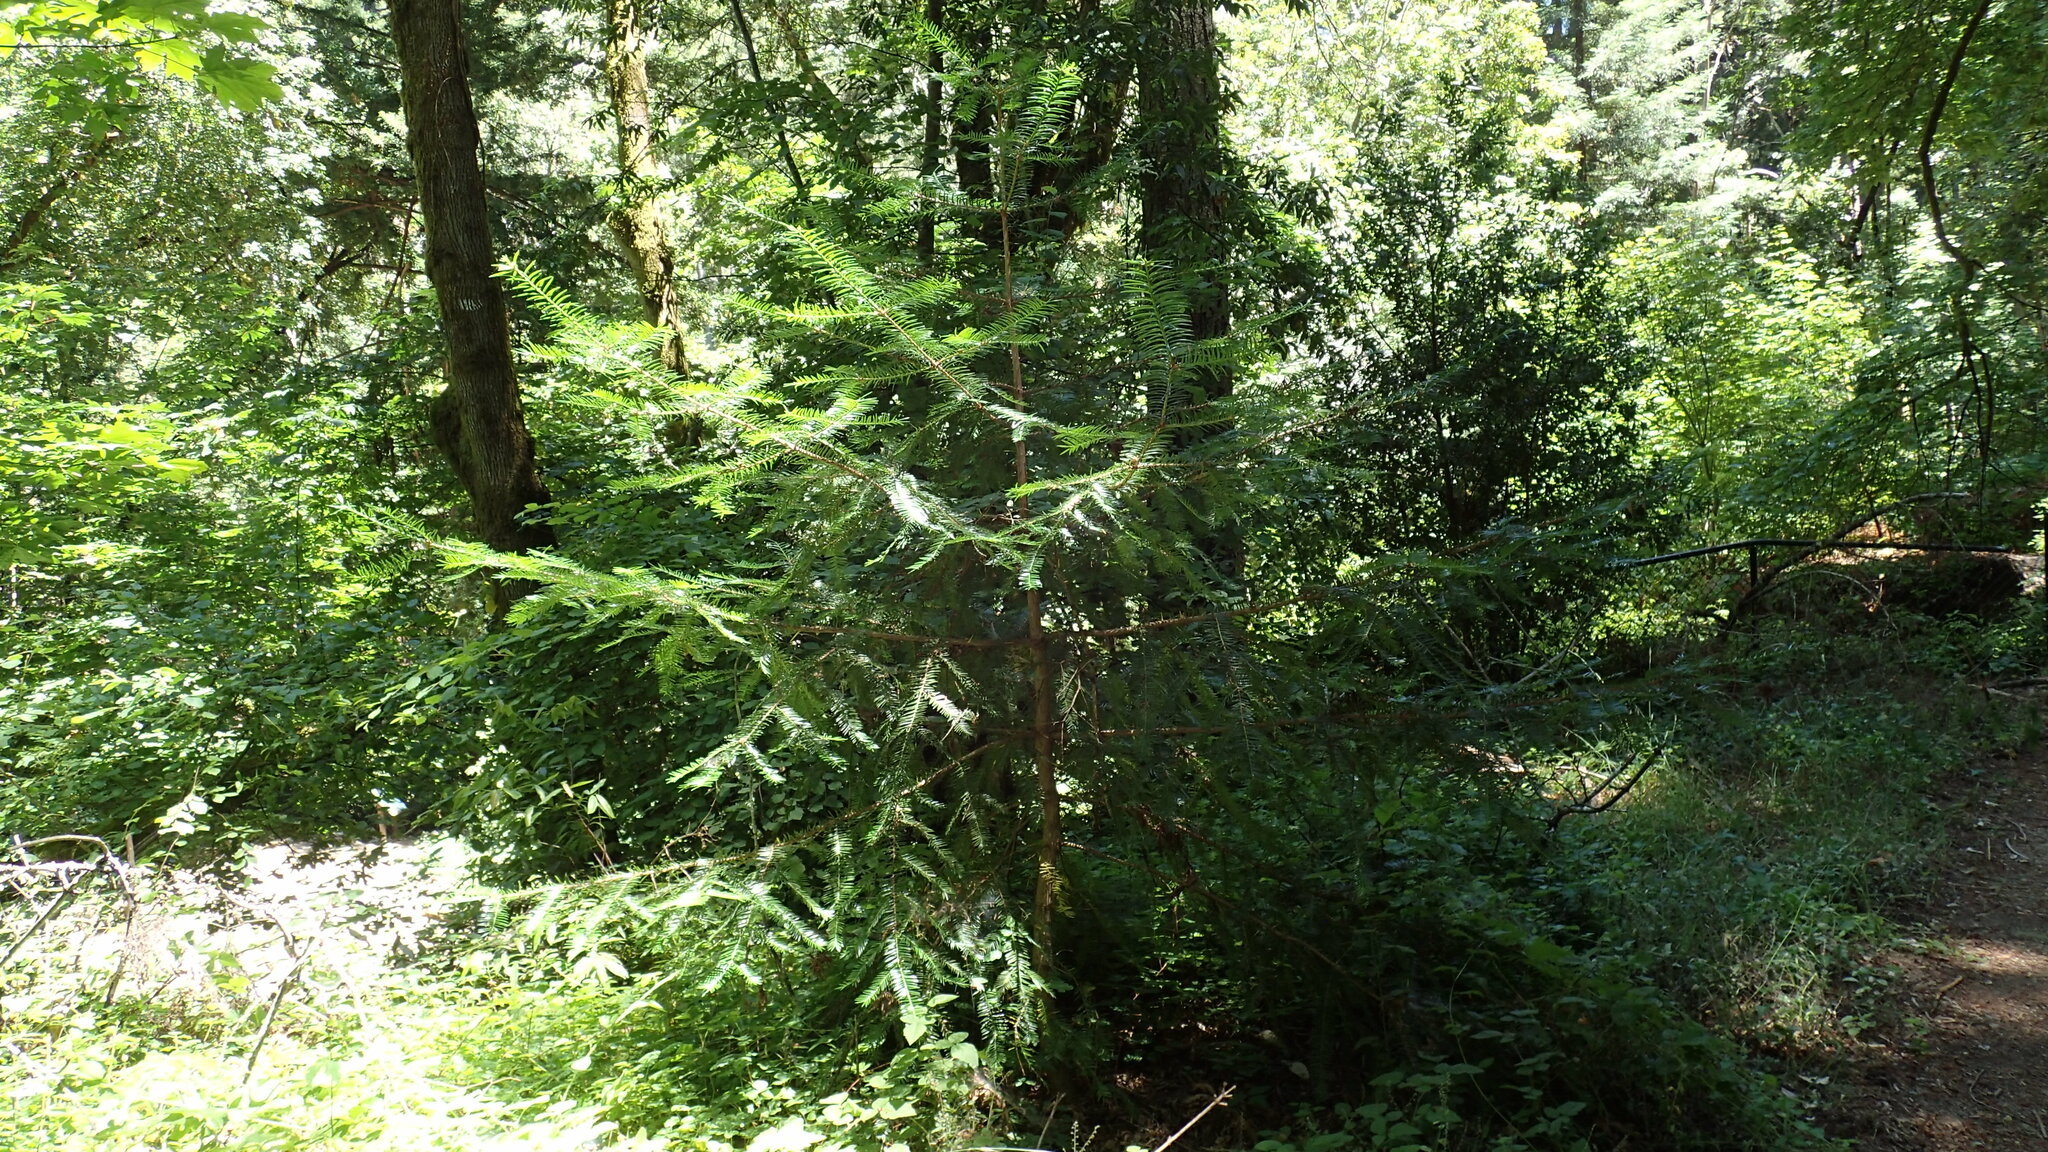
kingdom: Plantae
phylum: Tracheophyta
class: Pinopsida
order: Pinales
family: Taxaceae
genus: Torreya
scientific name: Torreya californica
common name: California torreya
